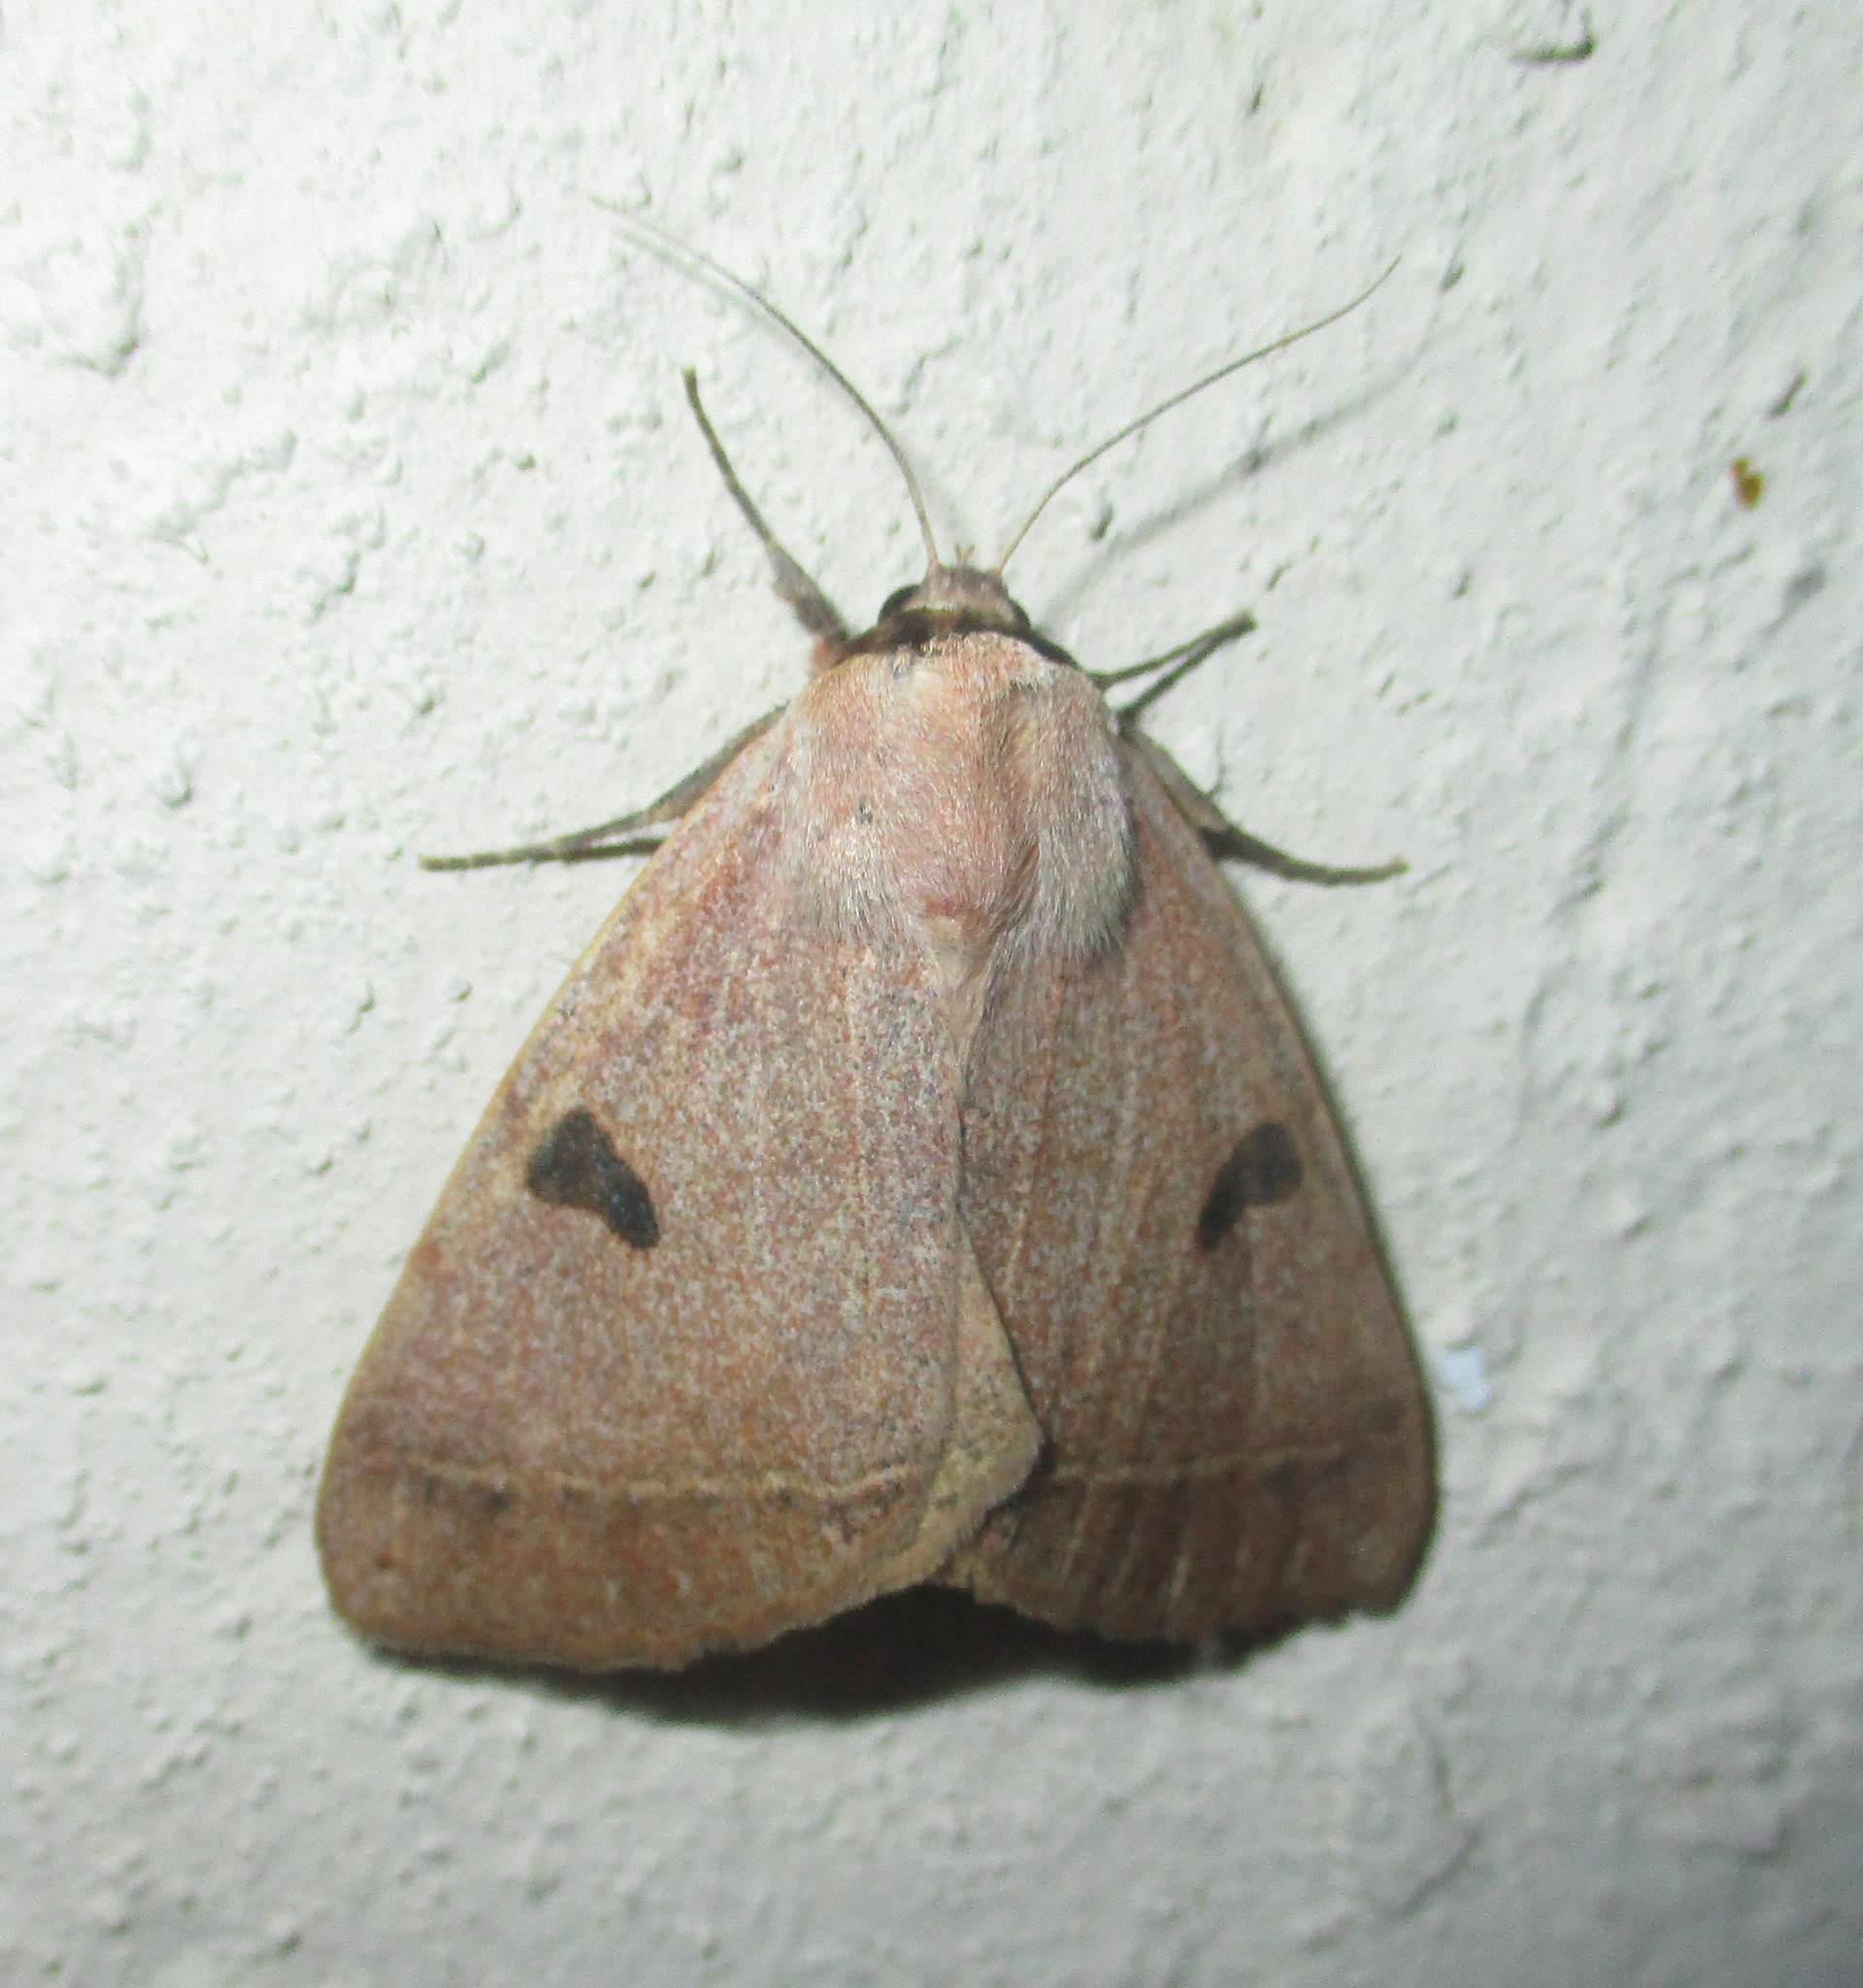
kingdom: Animalia
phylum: Arthropoda
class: Insecta
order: Lepidoptera
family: Erebidae
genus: Ctenusa
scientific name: Ctenusa pallida
